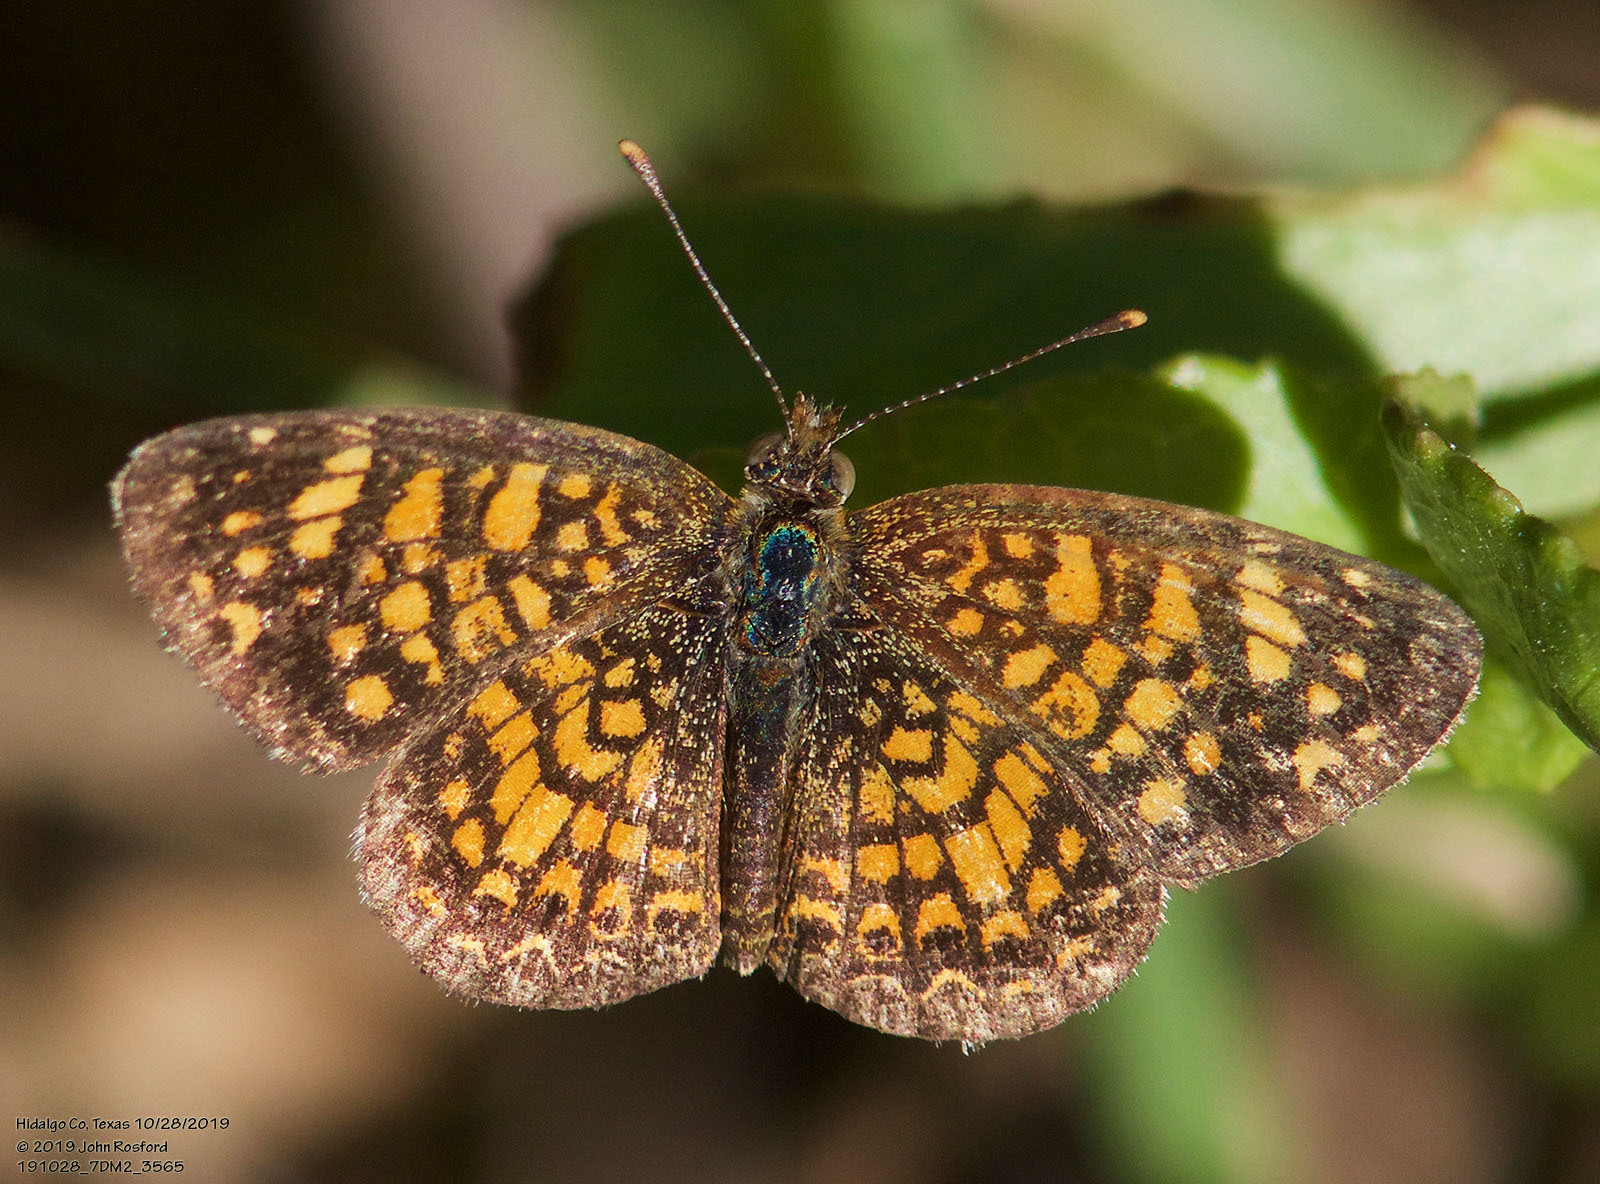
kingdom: Animalia
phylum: Arthropoda
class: Insecta
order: Lepidoptera
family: Nymphalidae
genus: Phyciodes
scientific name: Phyciodes vesta
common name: Vesta crescent
